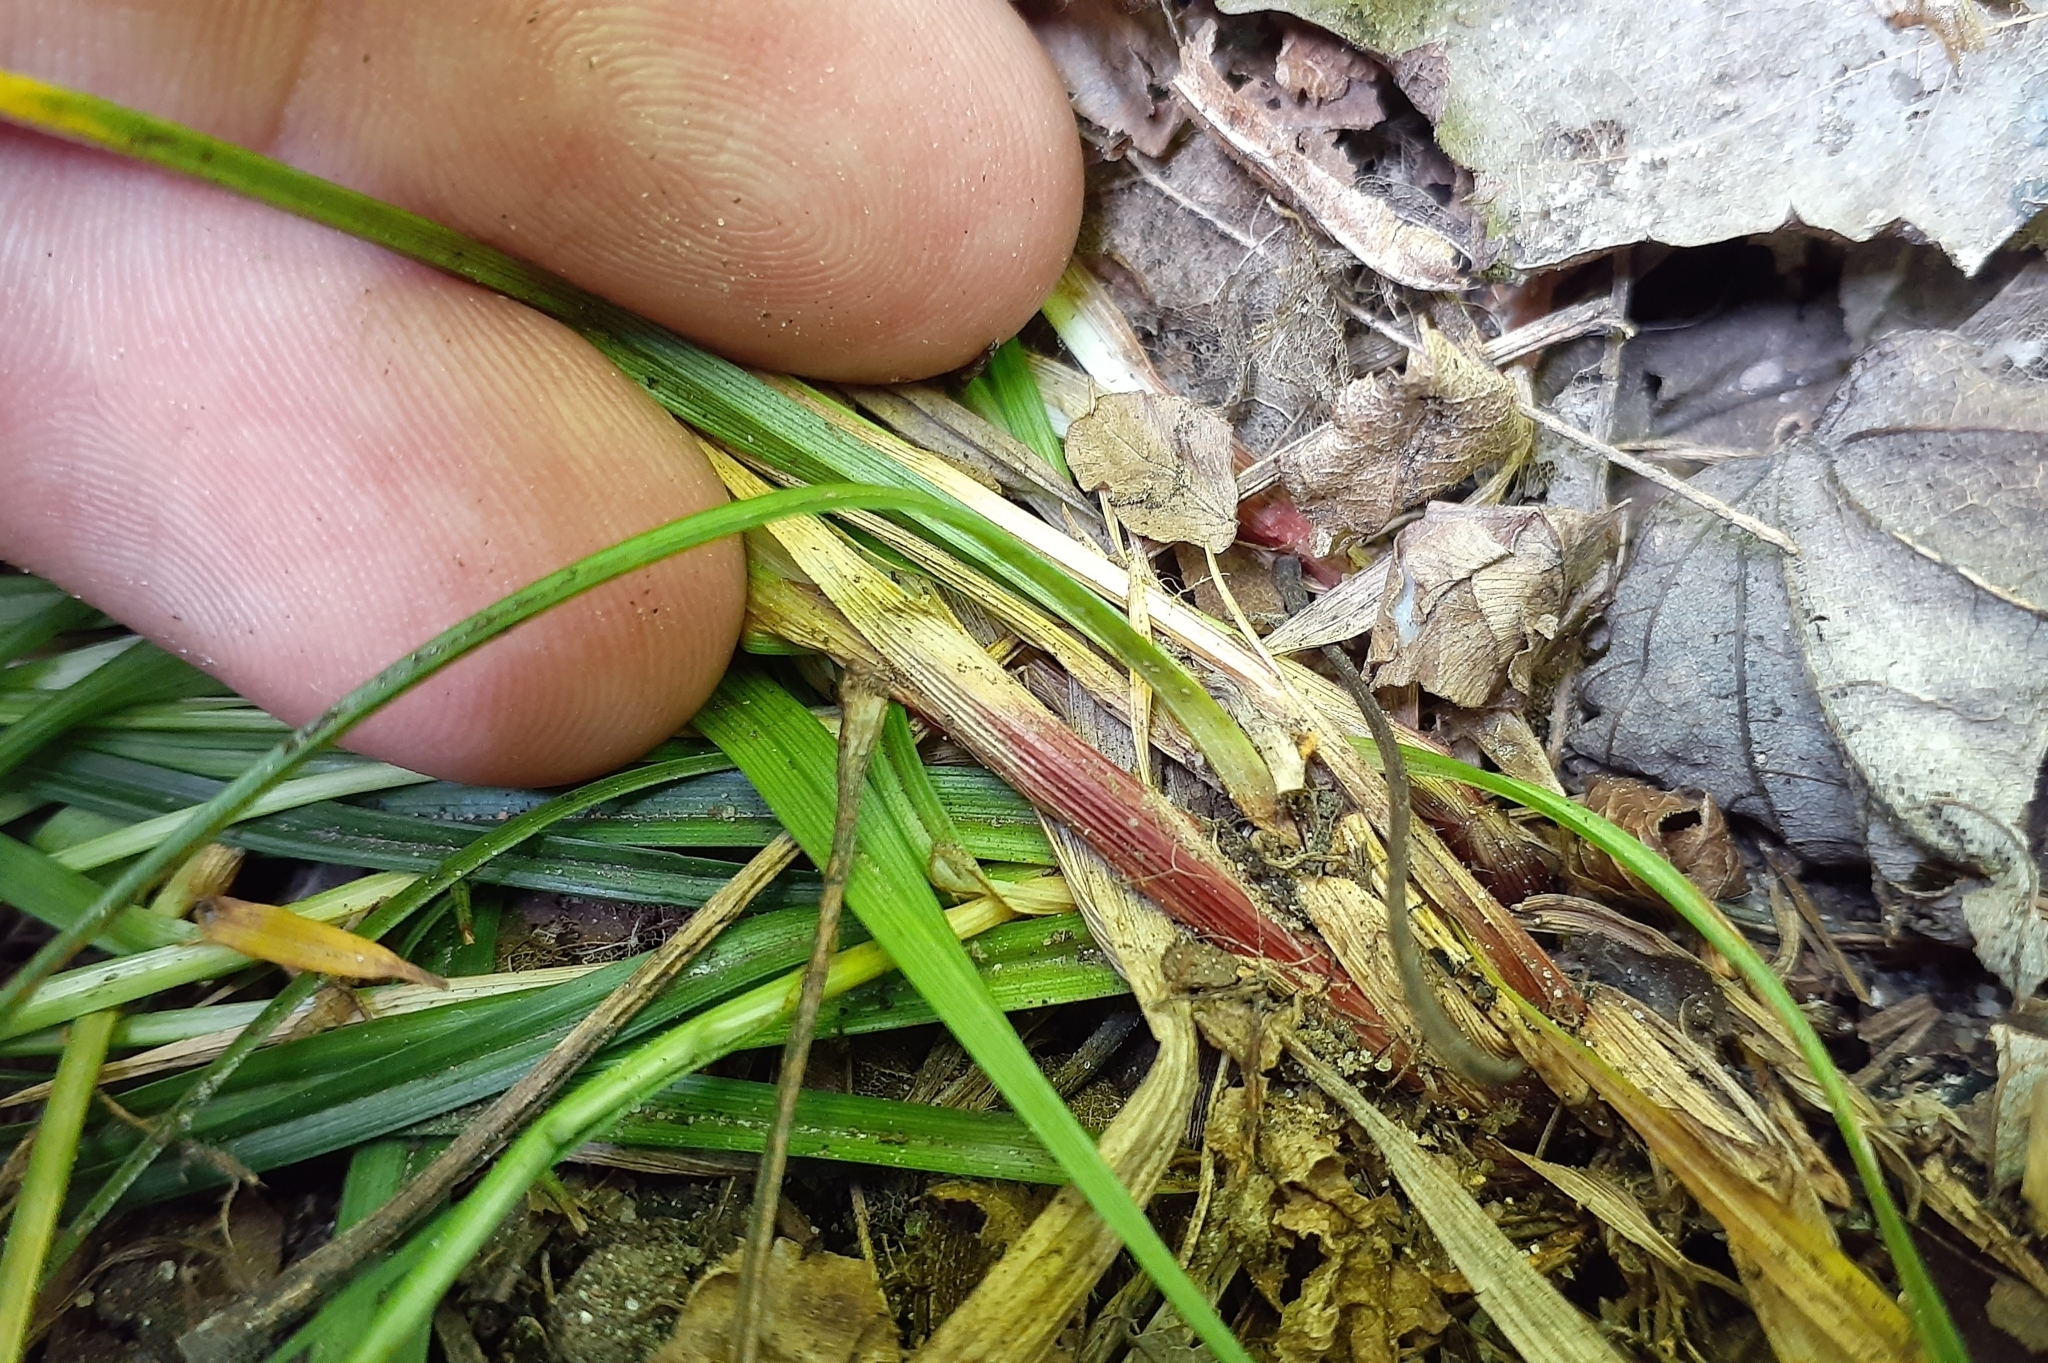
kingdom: Plantae
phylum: Tracheophyta
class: Liliopsida
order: Poales
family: Cyperaceae
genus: Carex
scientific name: Carex communis
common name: Colonial oak sedge
